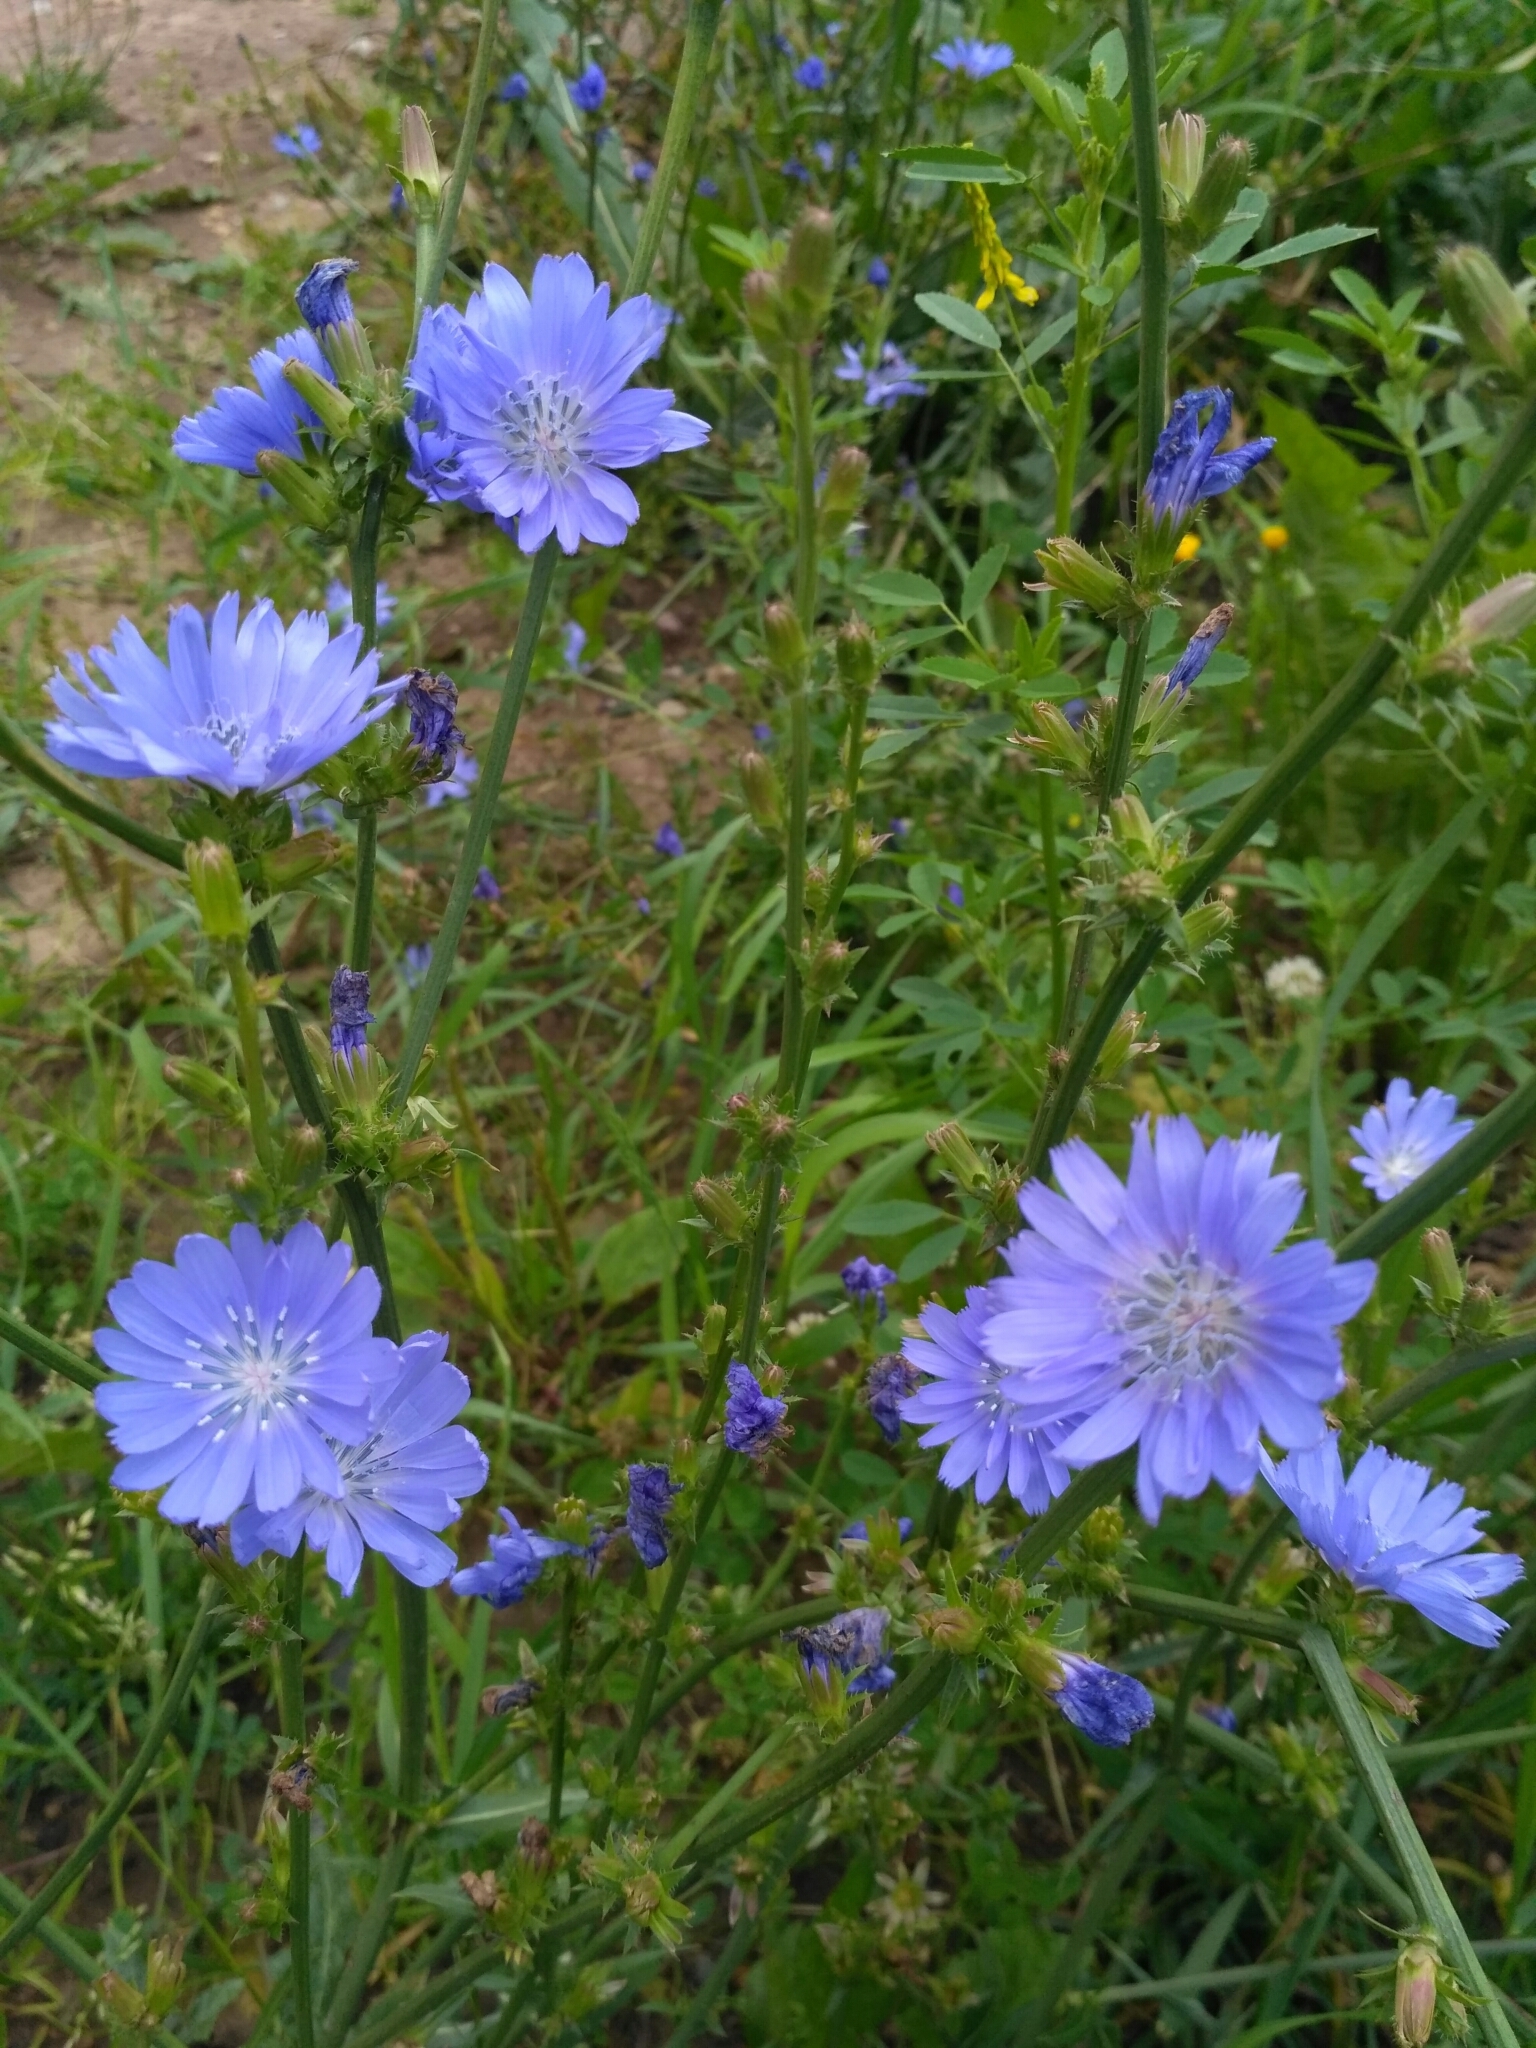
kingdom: Plantae
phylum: Tracheophyta
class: Magnoliopsida
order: Asterales
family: Asteraceae
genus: Cichorium
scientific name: Cichorium intybus
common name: Chicory
